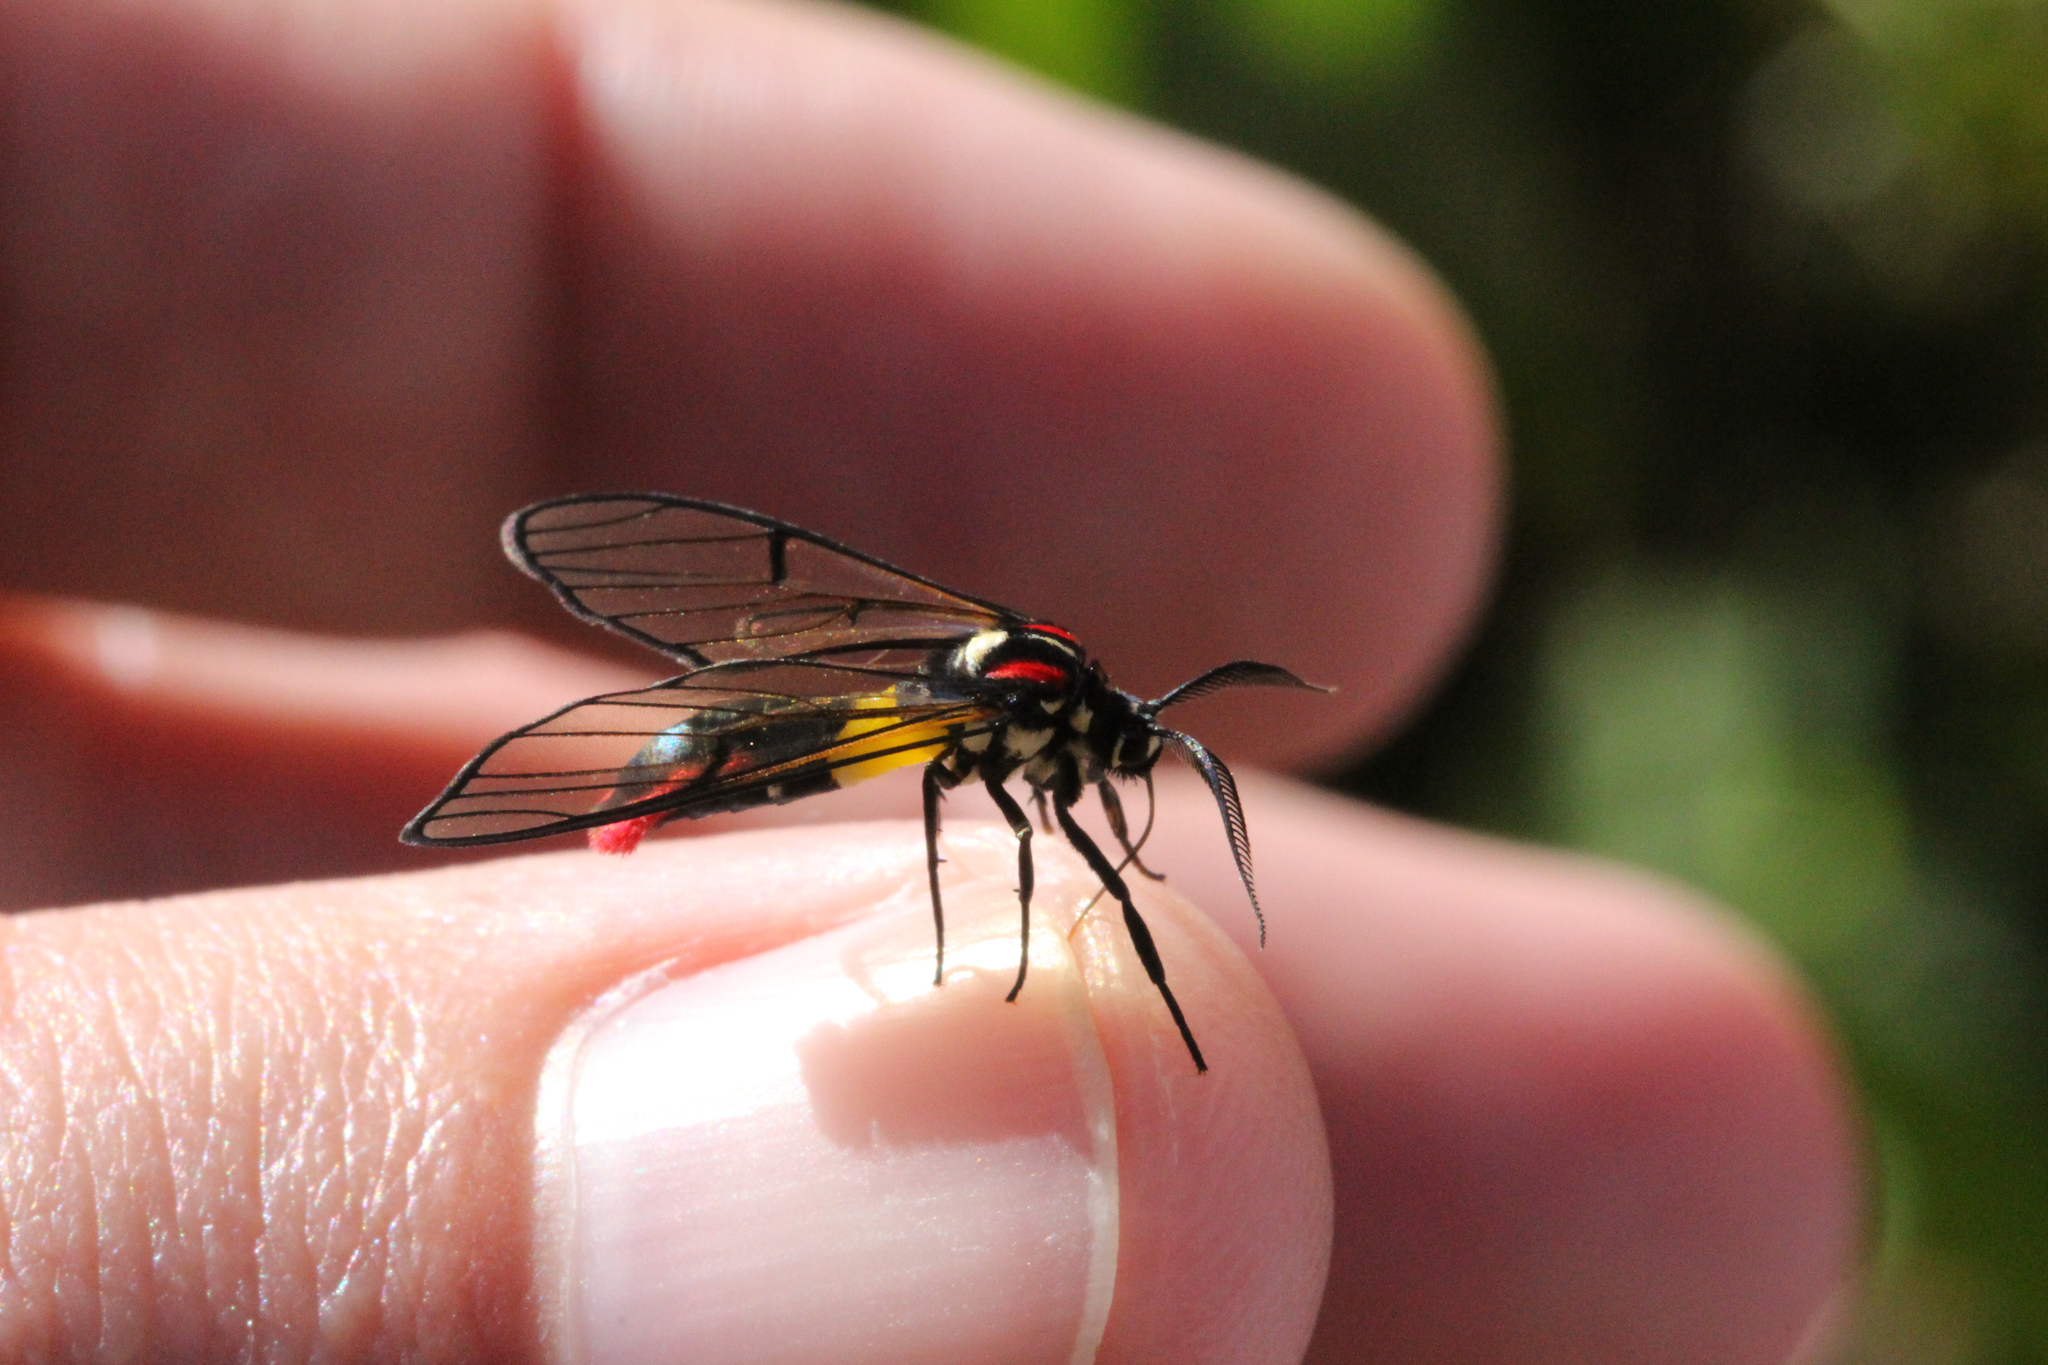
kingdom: Animalia
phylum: Arthropoda
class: Insecta
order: Lepidoptera
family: Erebidae
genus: Argyroeides
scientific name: Argyroeides braco
